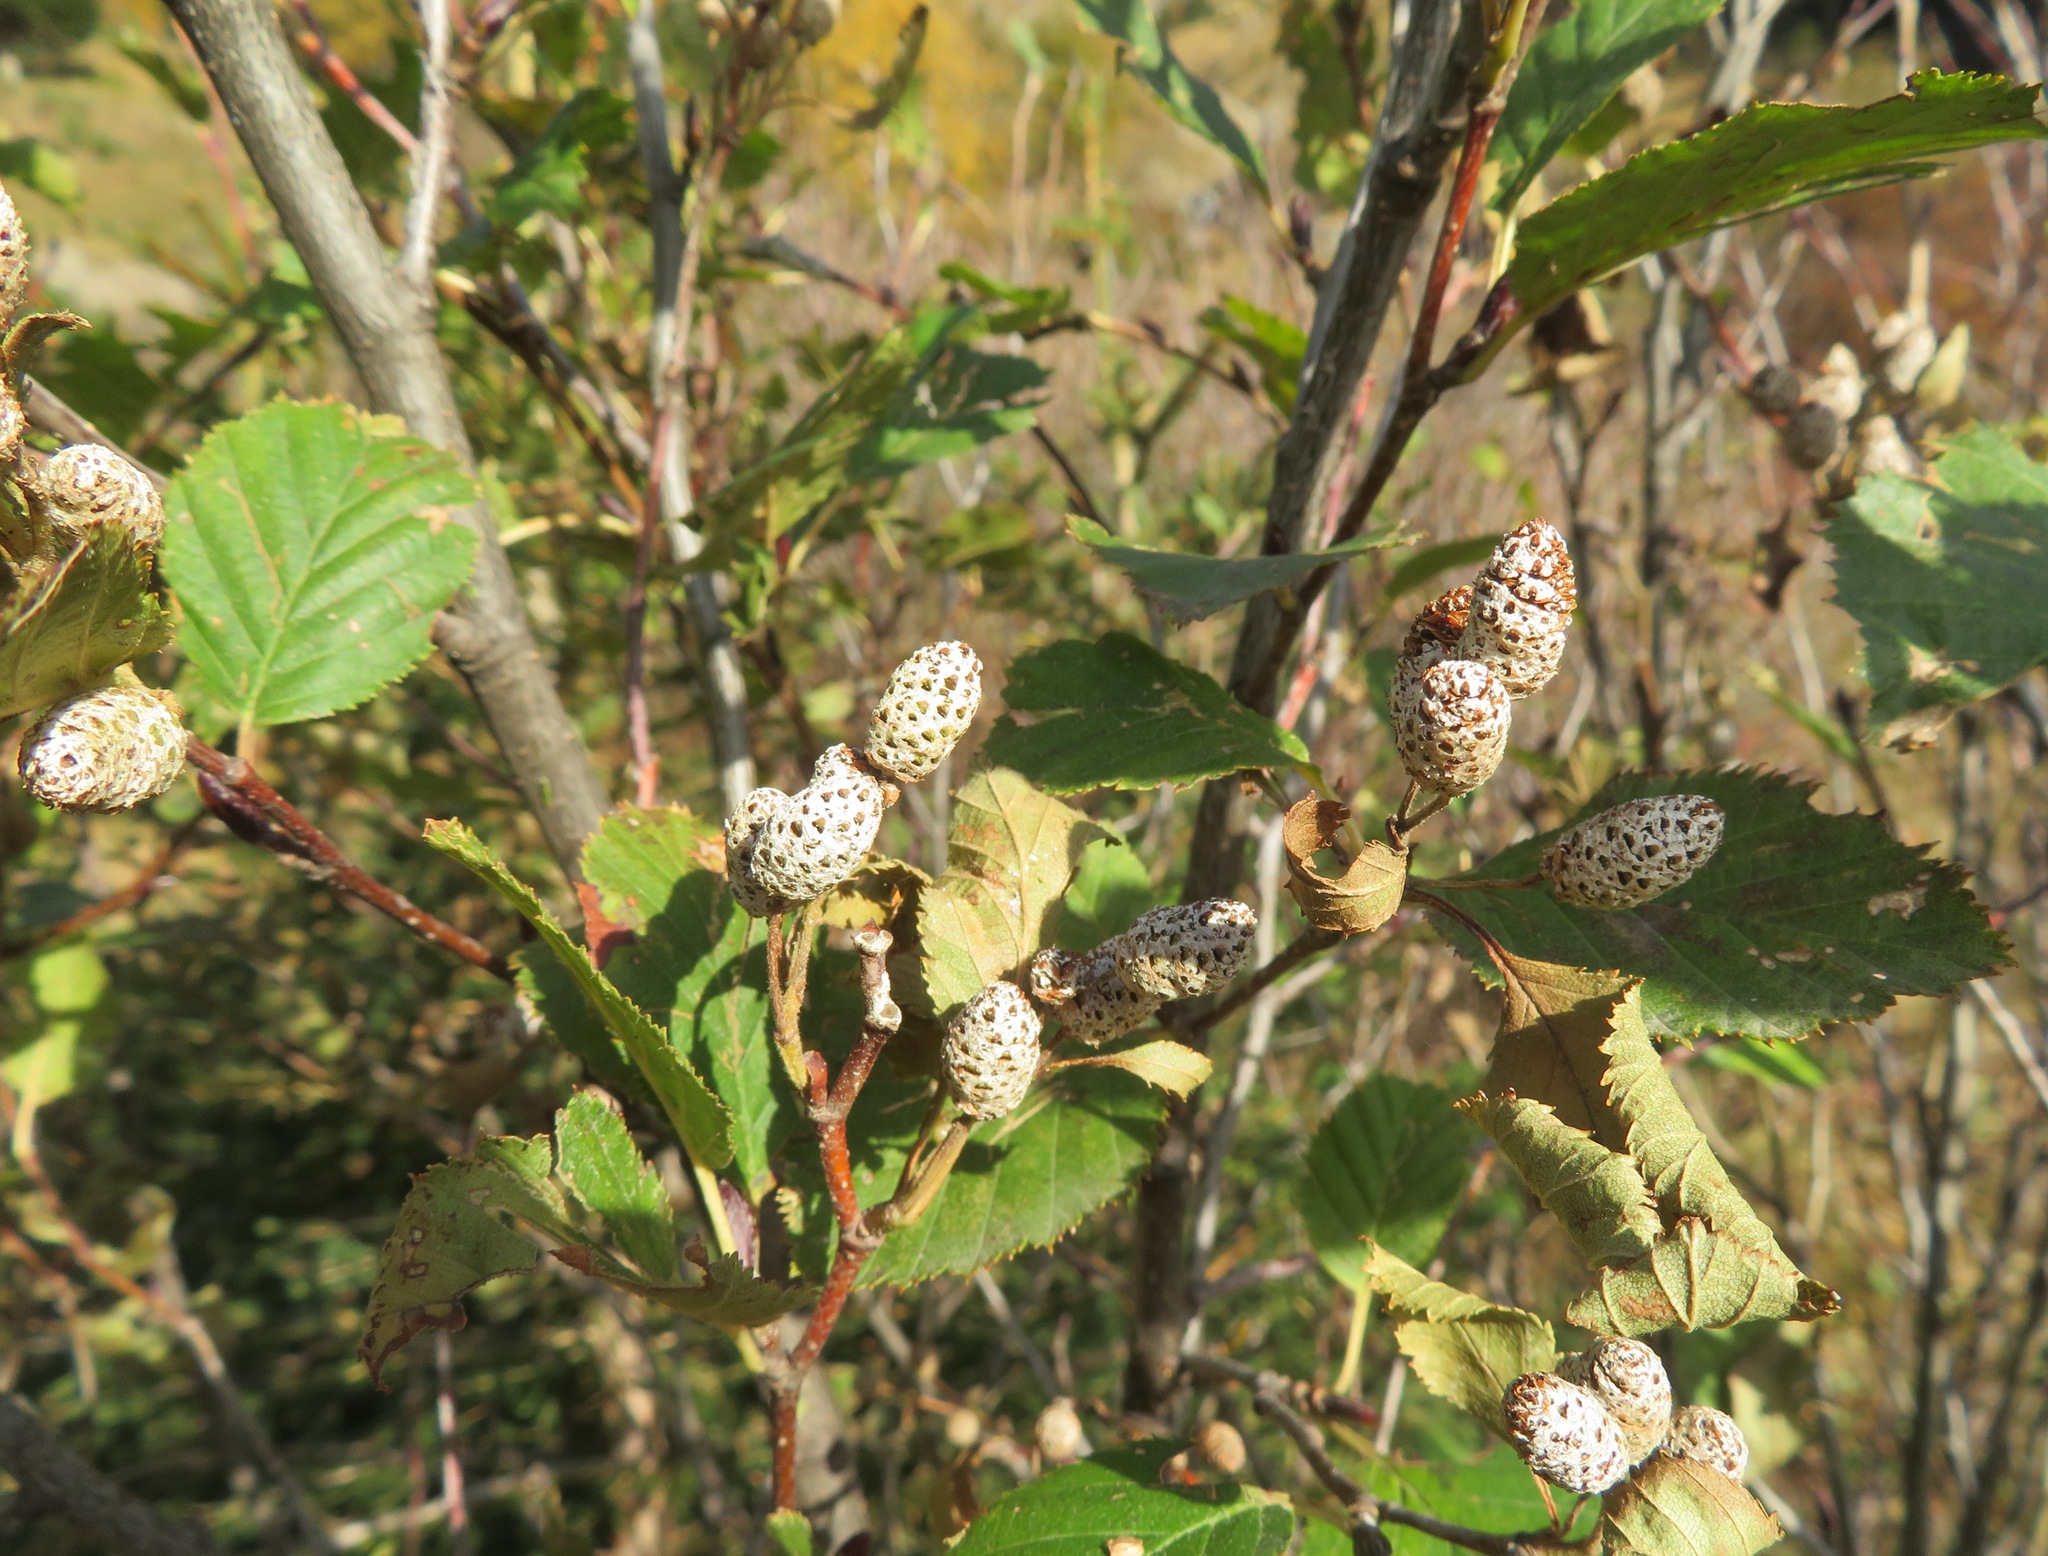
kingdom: Plantae
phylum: Tracheophyta
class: Magnoliopsida
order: Fagales
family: Betulaceae
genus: Alnus
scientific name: Alnus alnobetula
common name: Green alder
